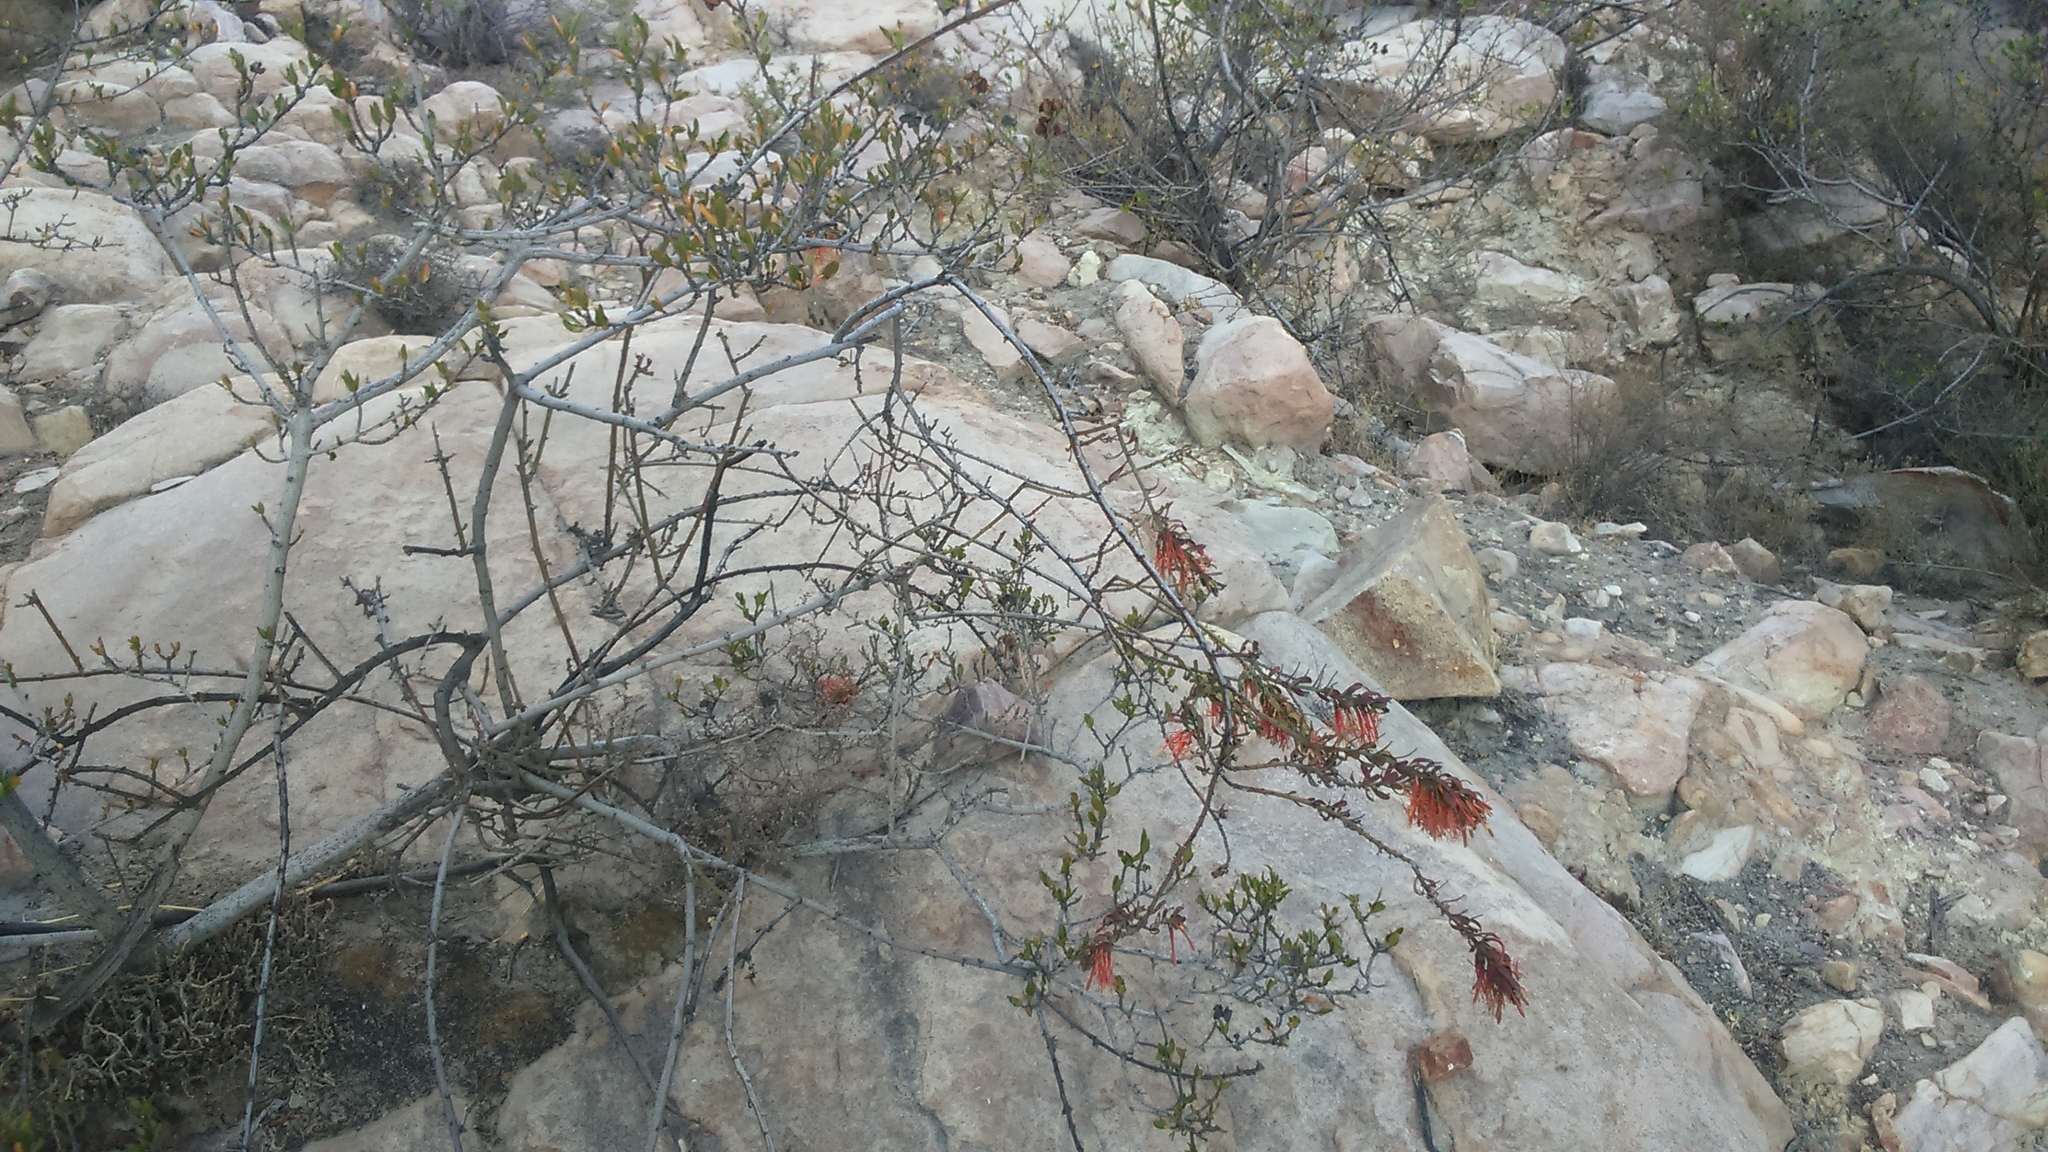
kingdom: Plantae
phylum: Tracheophyta
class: Magnoliopsida
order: Santalales
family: Loranthaceae
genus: Ligaria
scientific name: Ligaria cuneifolia
